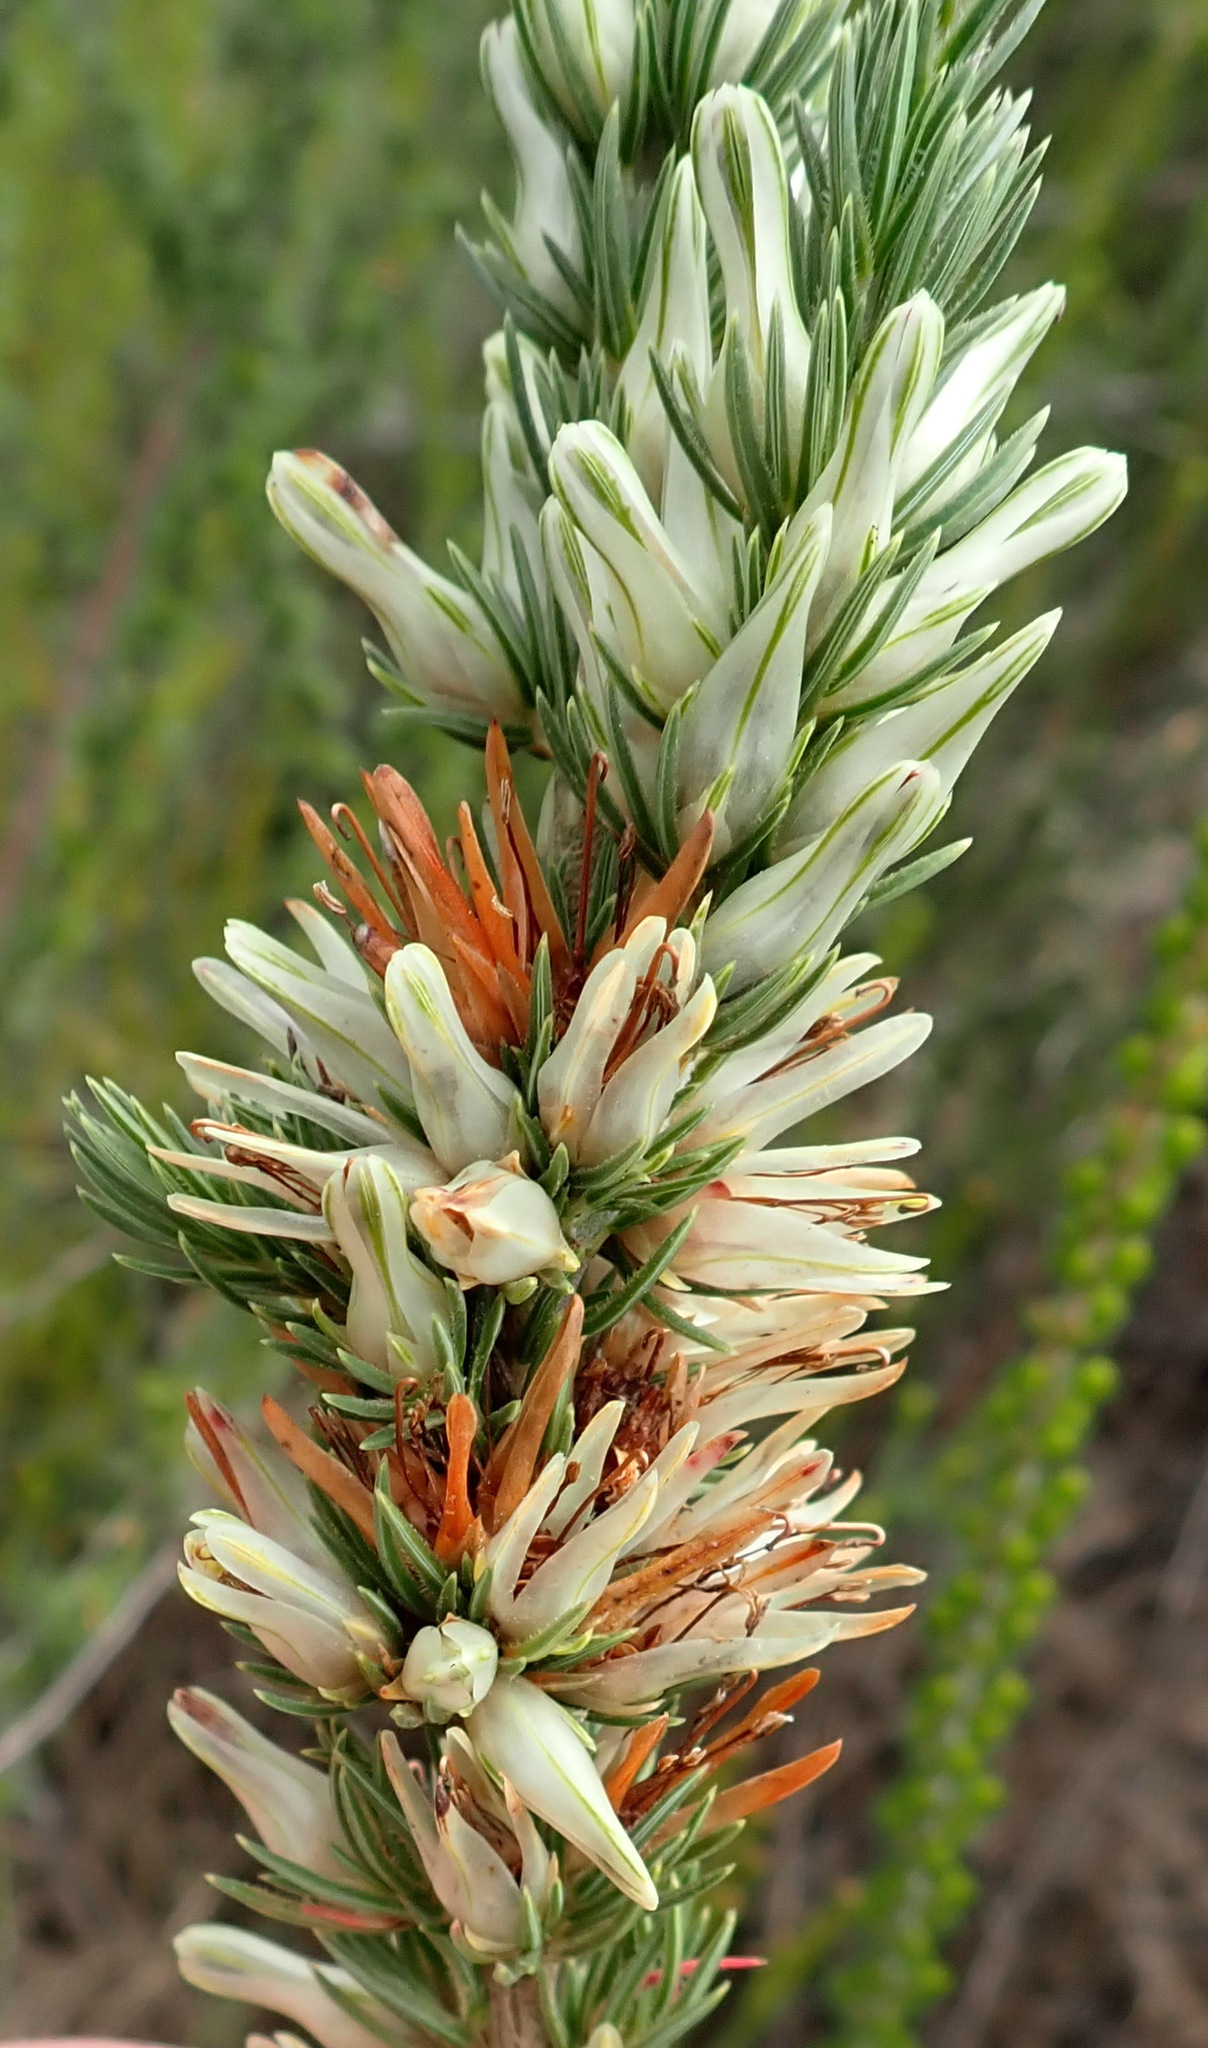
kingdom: Plantae
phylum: Tracheophyta
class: Magnoliopsida
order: Ericales
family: Ericaceae
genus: Erica
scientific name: Erica nabea
